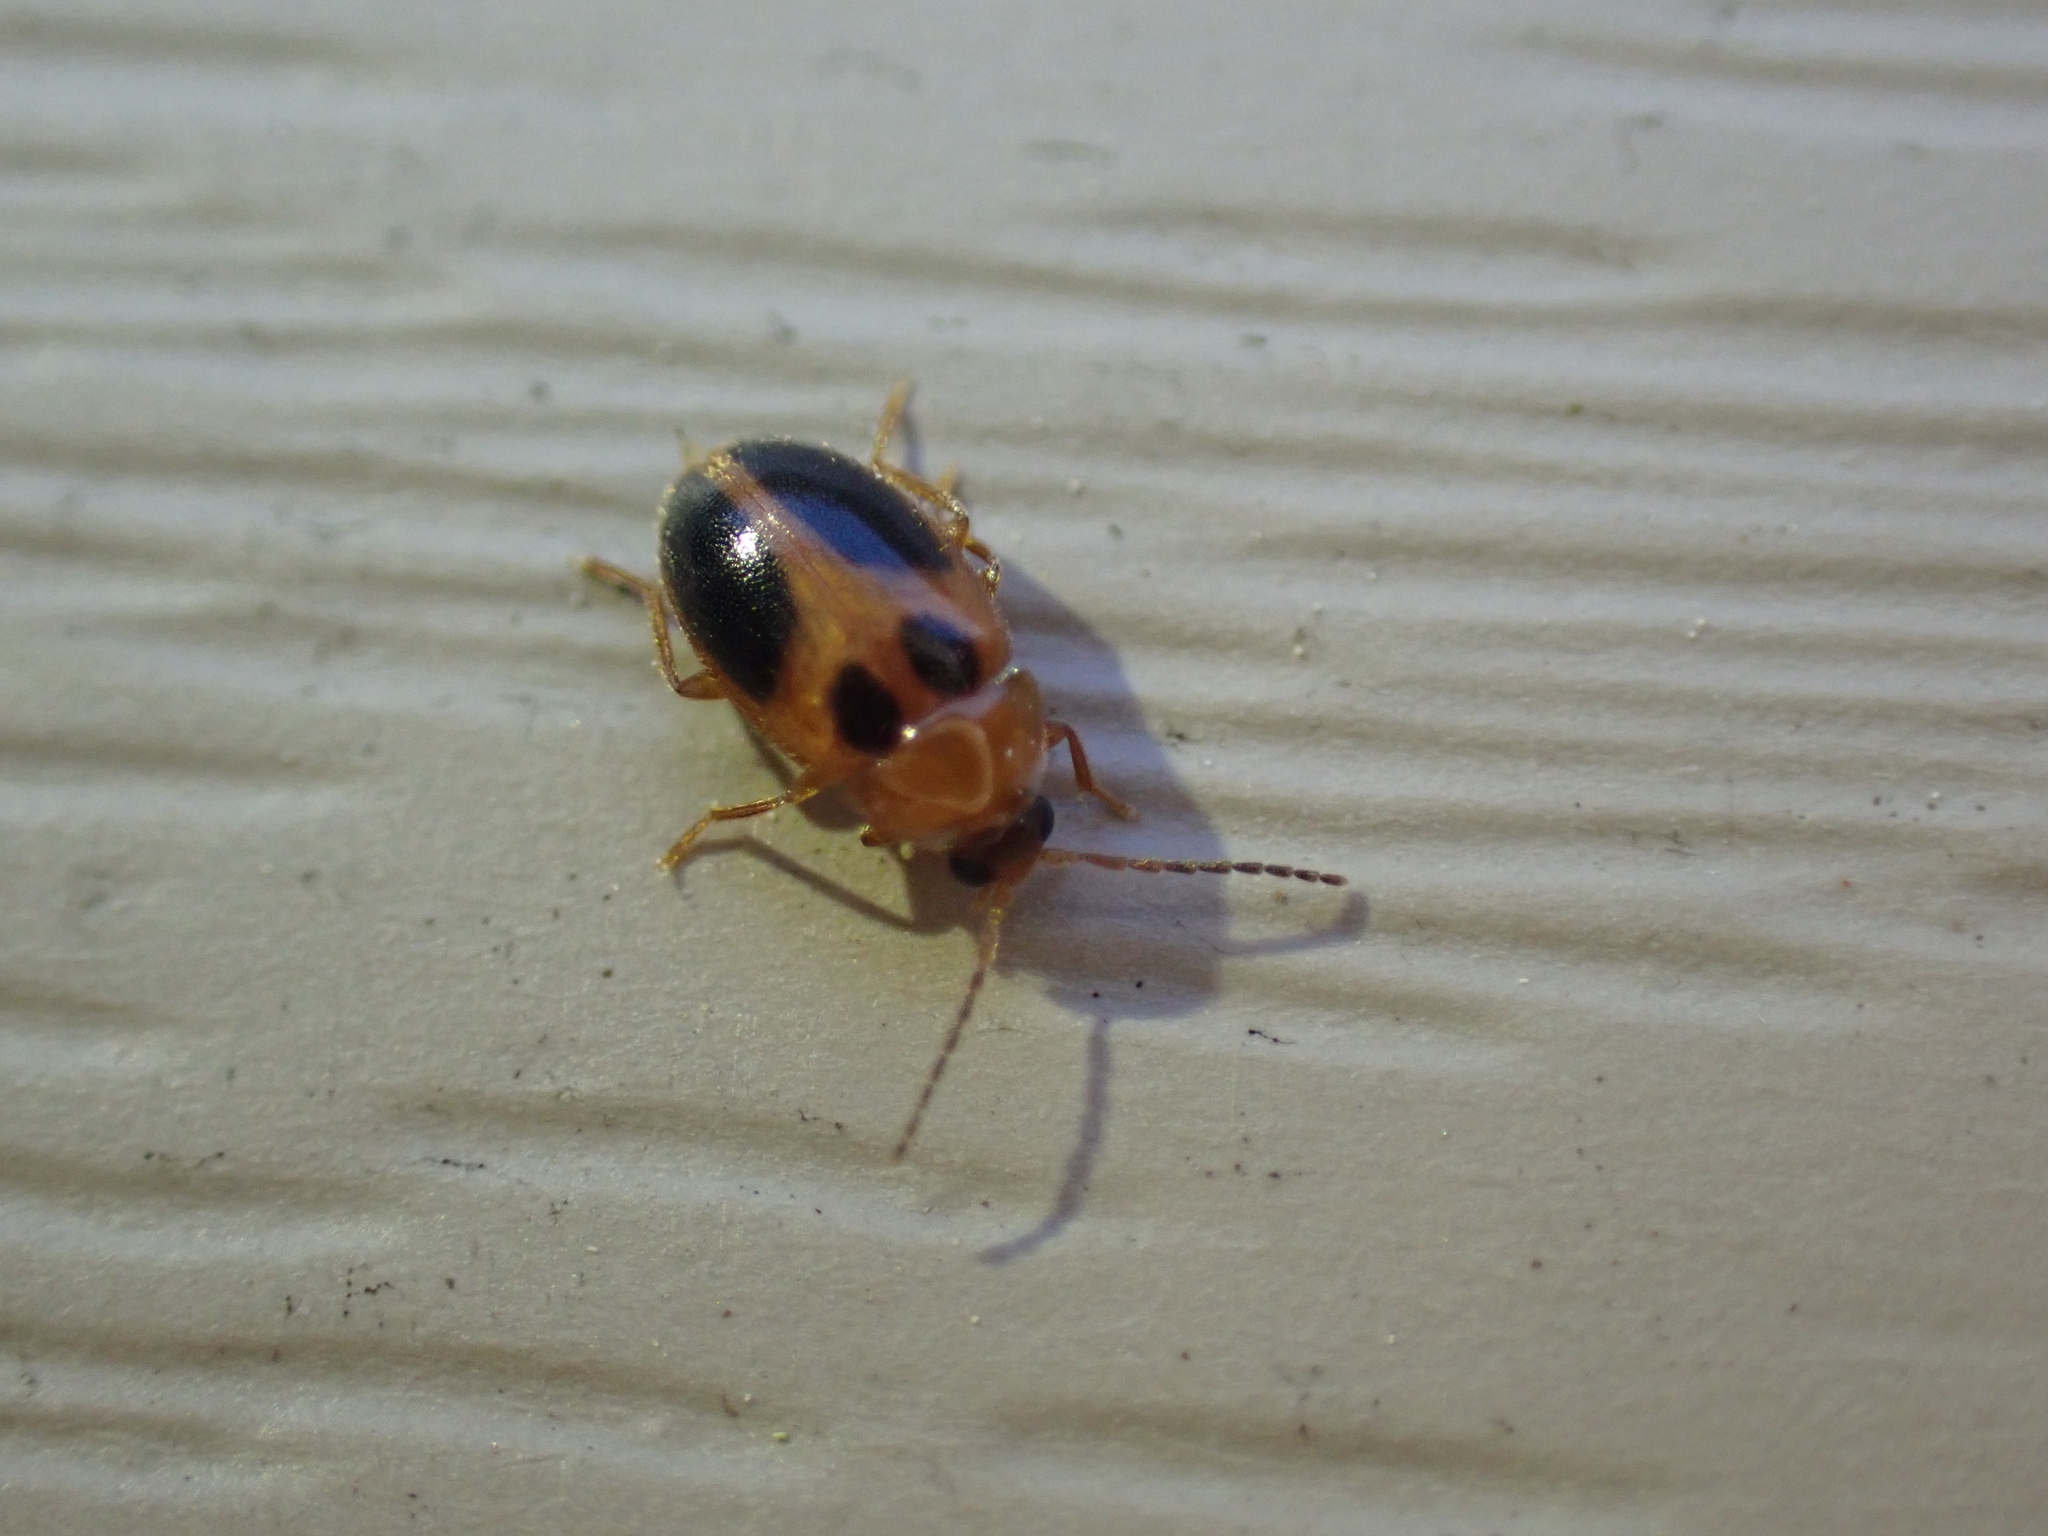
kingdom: Animalia
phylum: Arthropoda
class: Insecta
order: Coleoptera
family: Scirtidae
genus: Sacodes
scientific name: Sacodes pulchella
